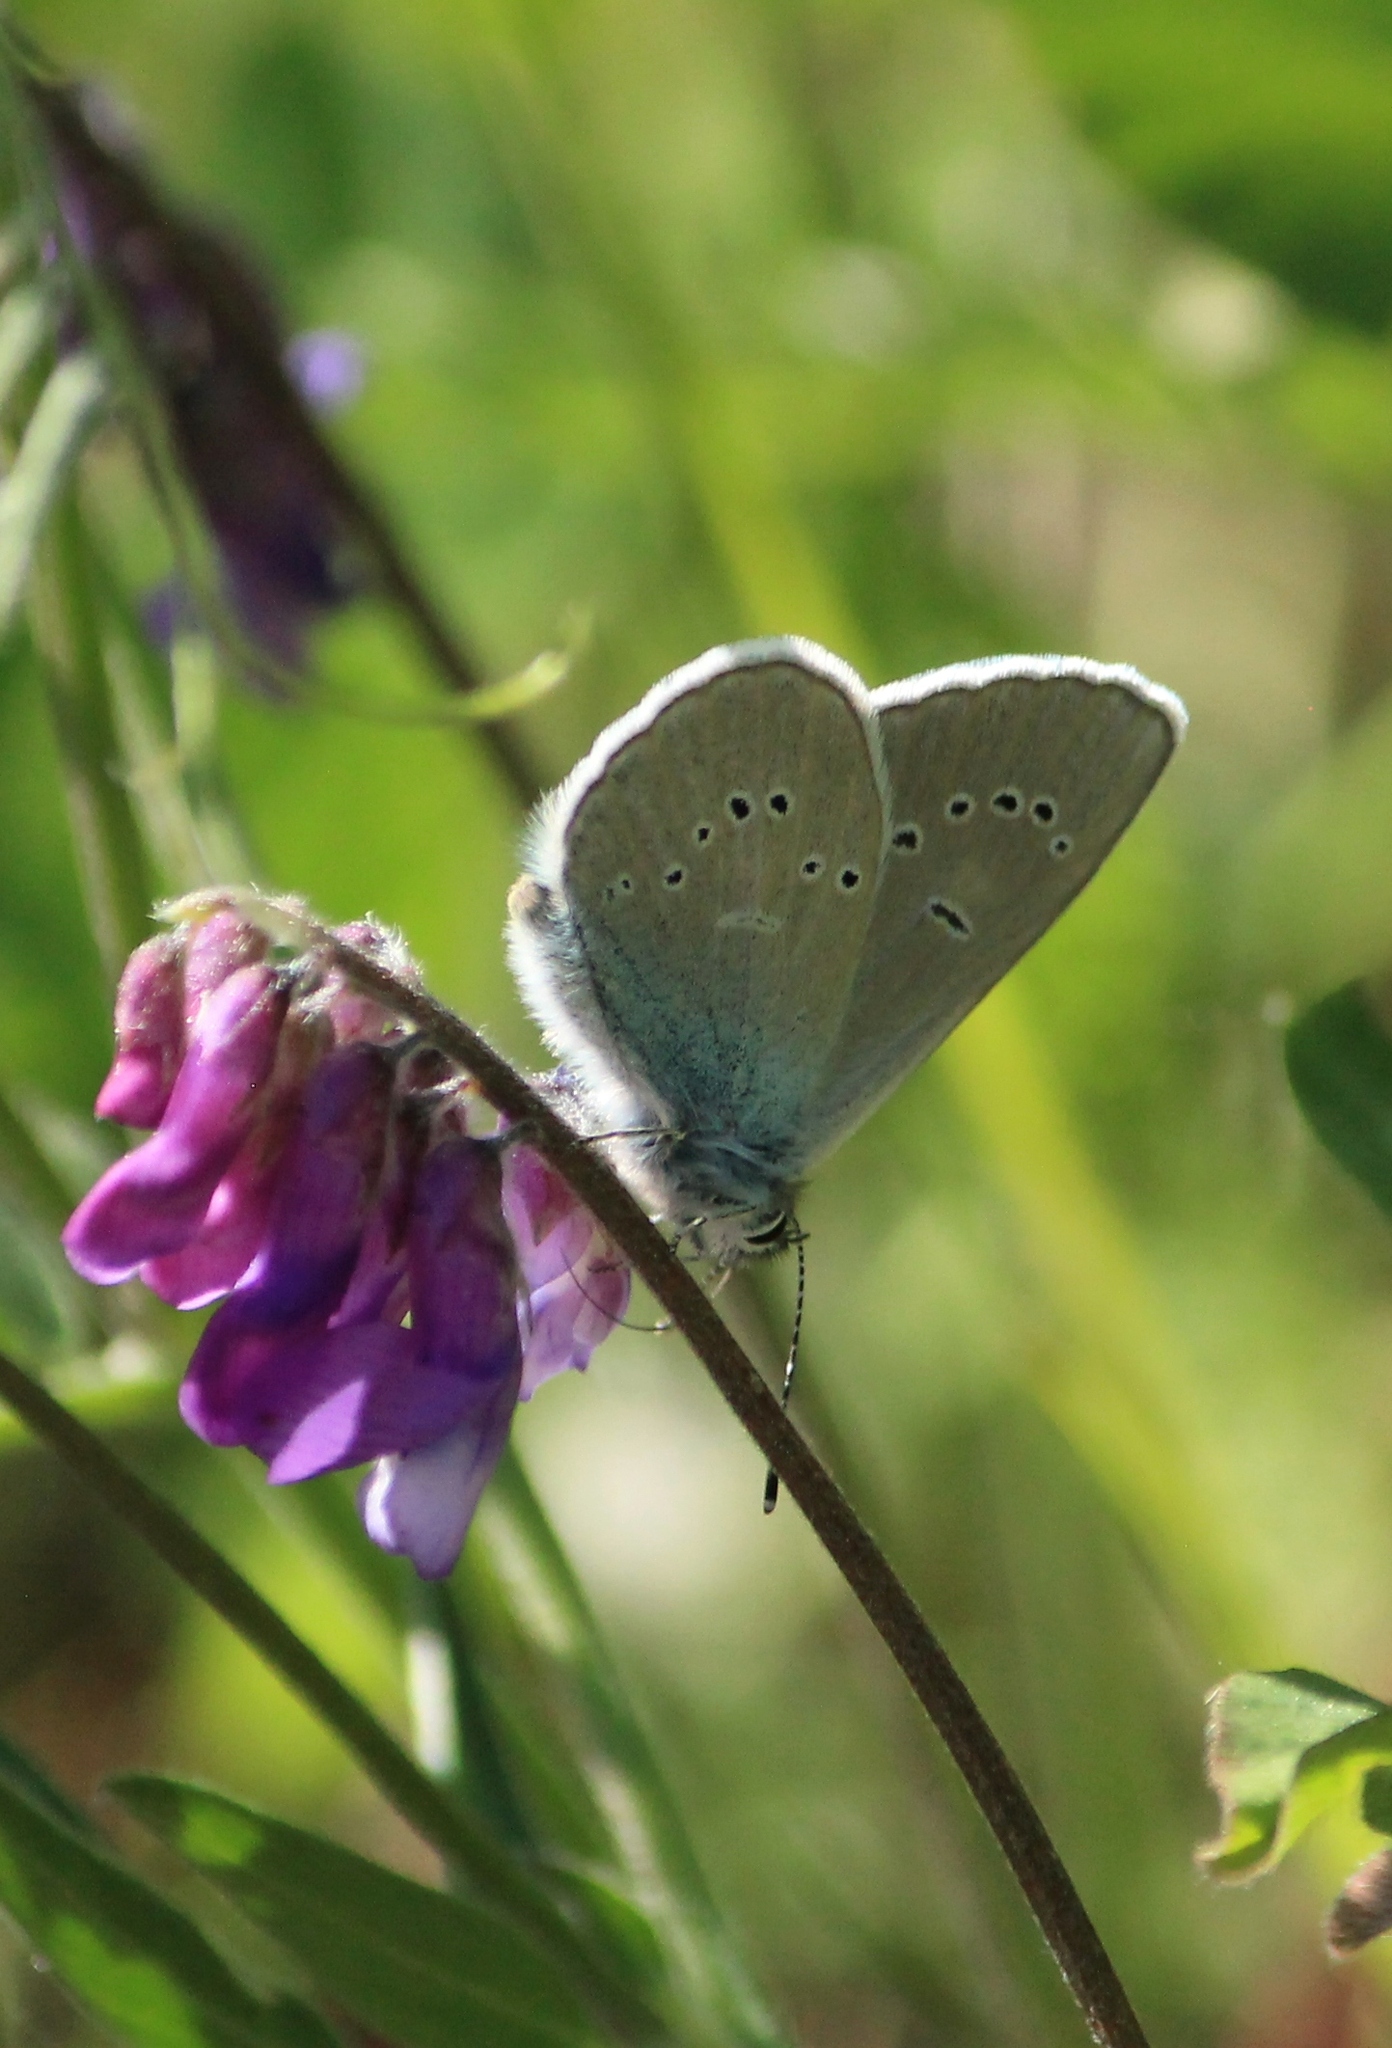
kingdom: Animalia
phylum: Arthropoda
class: Insecta
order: Lepidoptera
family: Lycaenidae
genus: Cyaniris
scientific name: Cyaniris semiargus
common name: Mazarine blue
